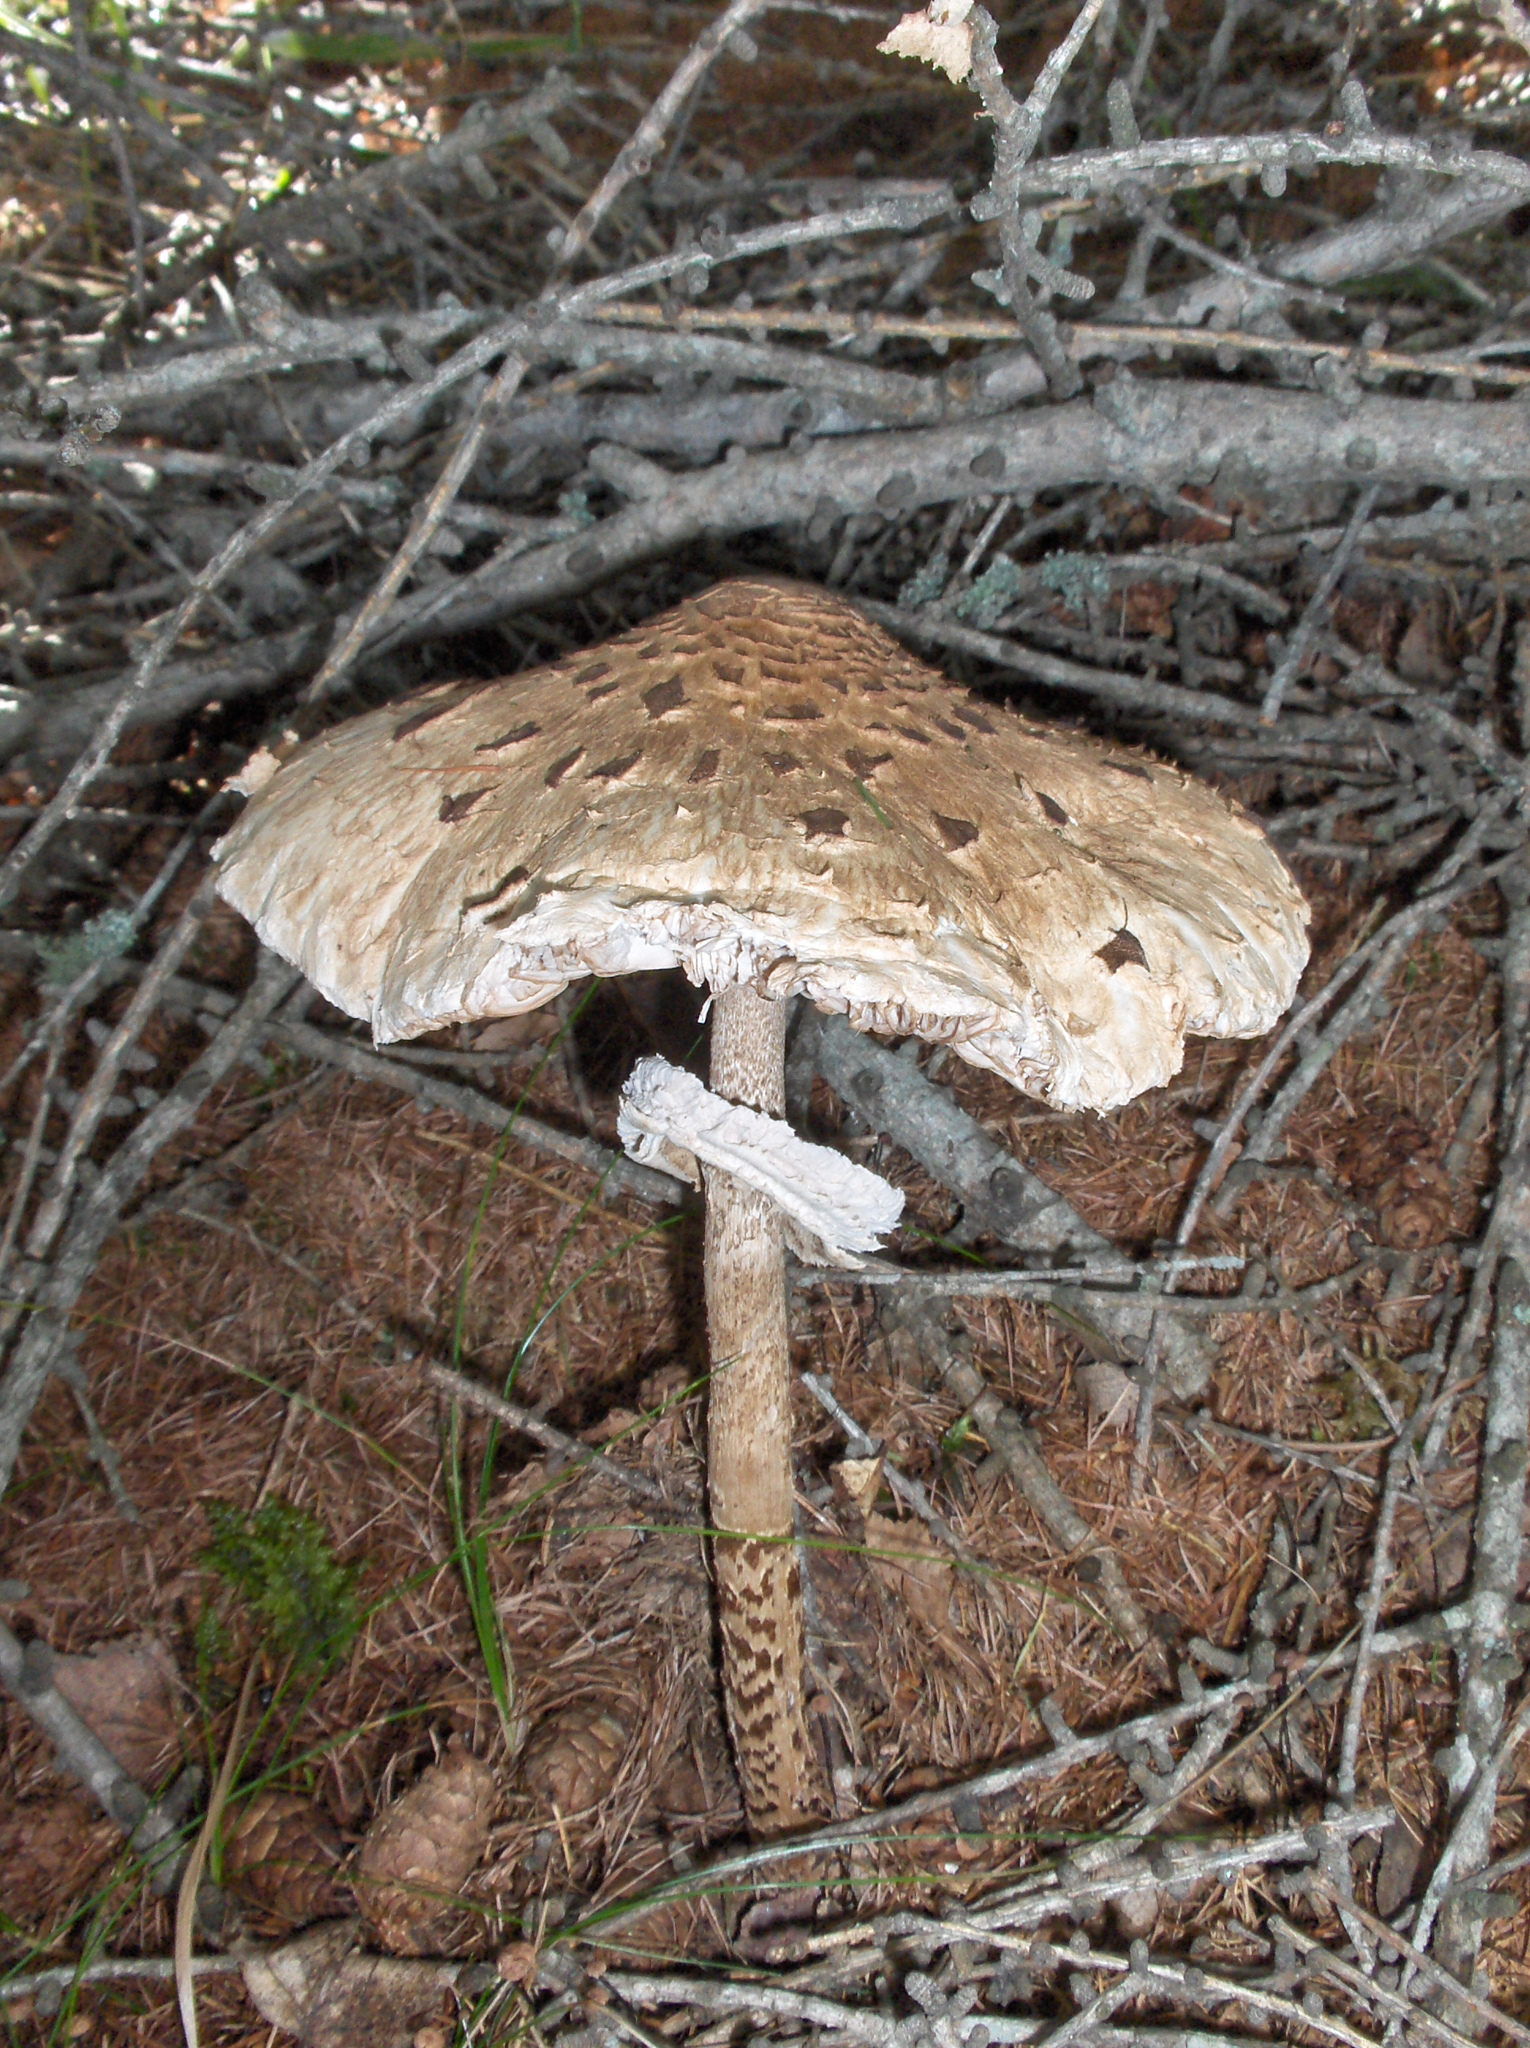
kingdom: Fungi
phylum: Basidiomycota
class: Agaricomycetes
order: Agaricales
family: Agaricaceae
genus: Macrolepiota
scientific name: Macrolepiota procera
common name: Parasol
